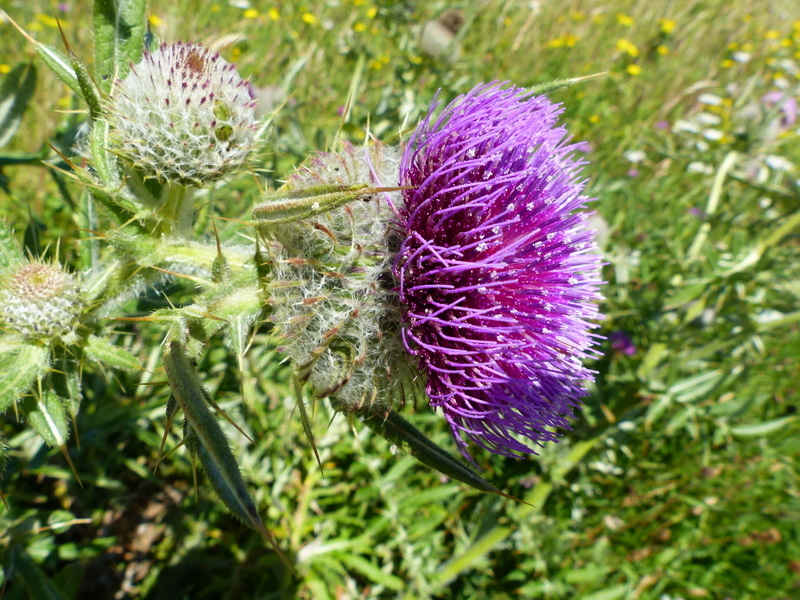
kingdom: Plantae
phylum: Tracheophyta
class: Magnoliopsida
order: Asterales
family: Asteraceae
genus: Lophiolepis
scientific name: Lophiolepis eriophora
